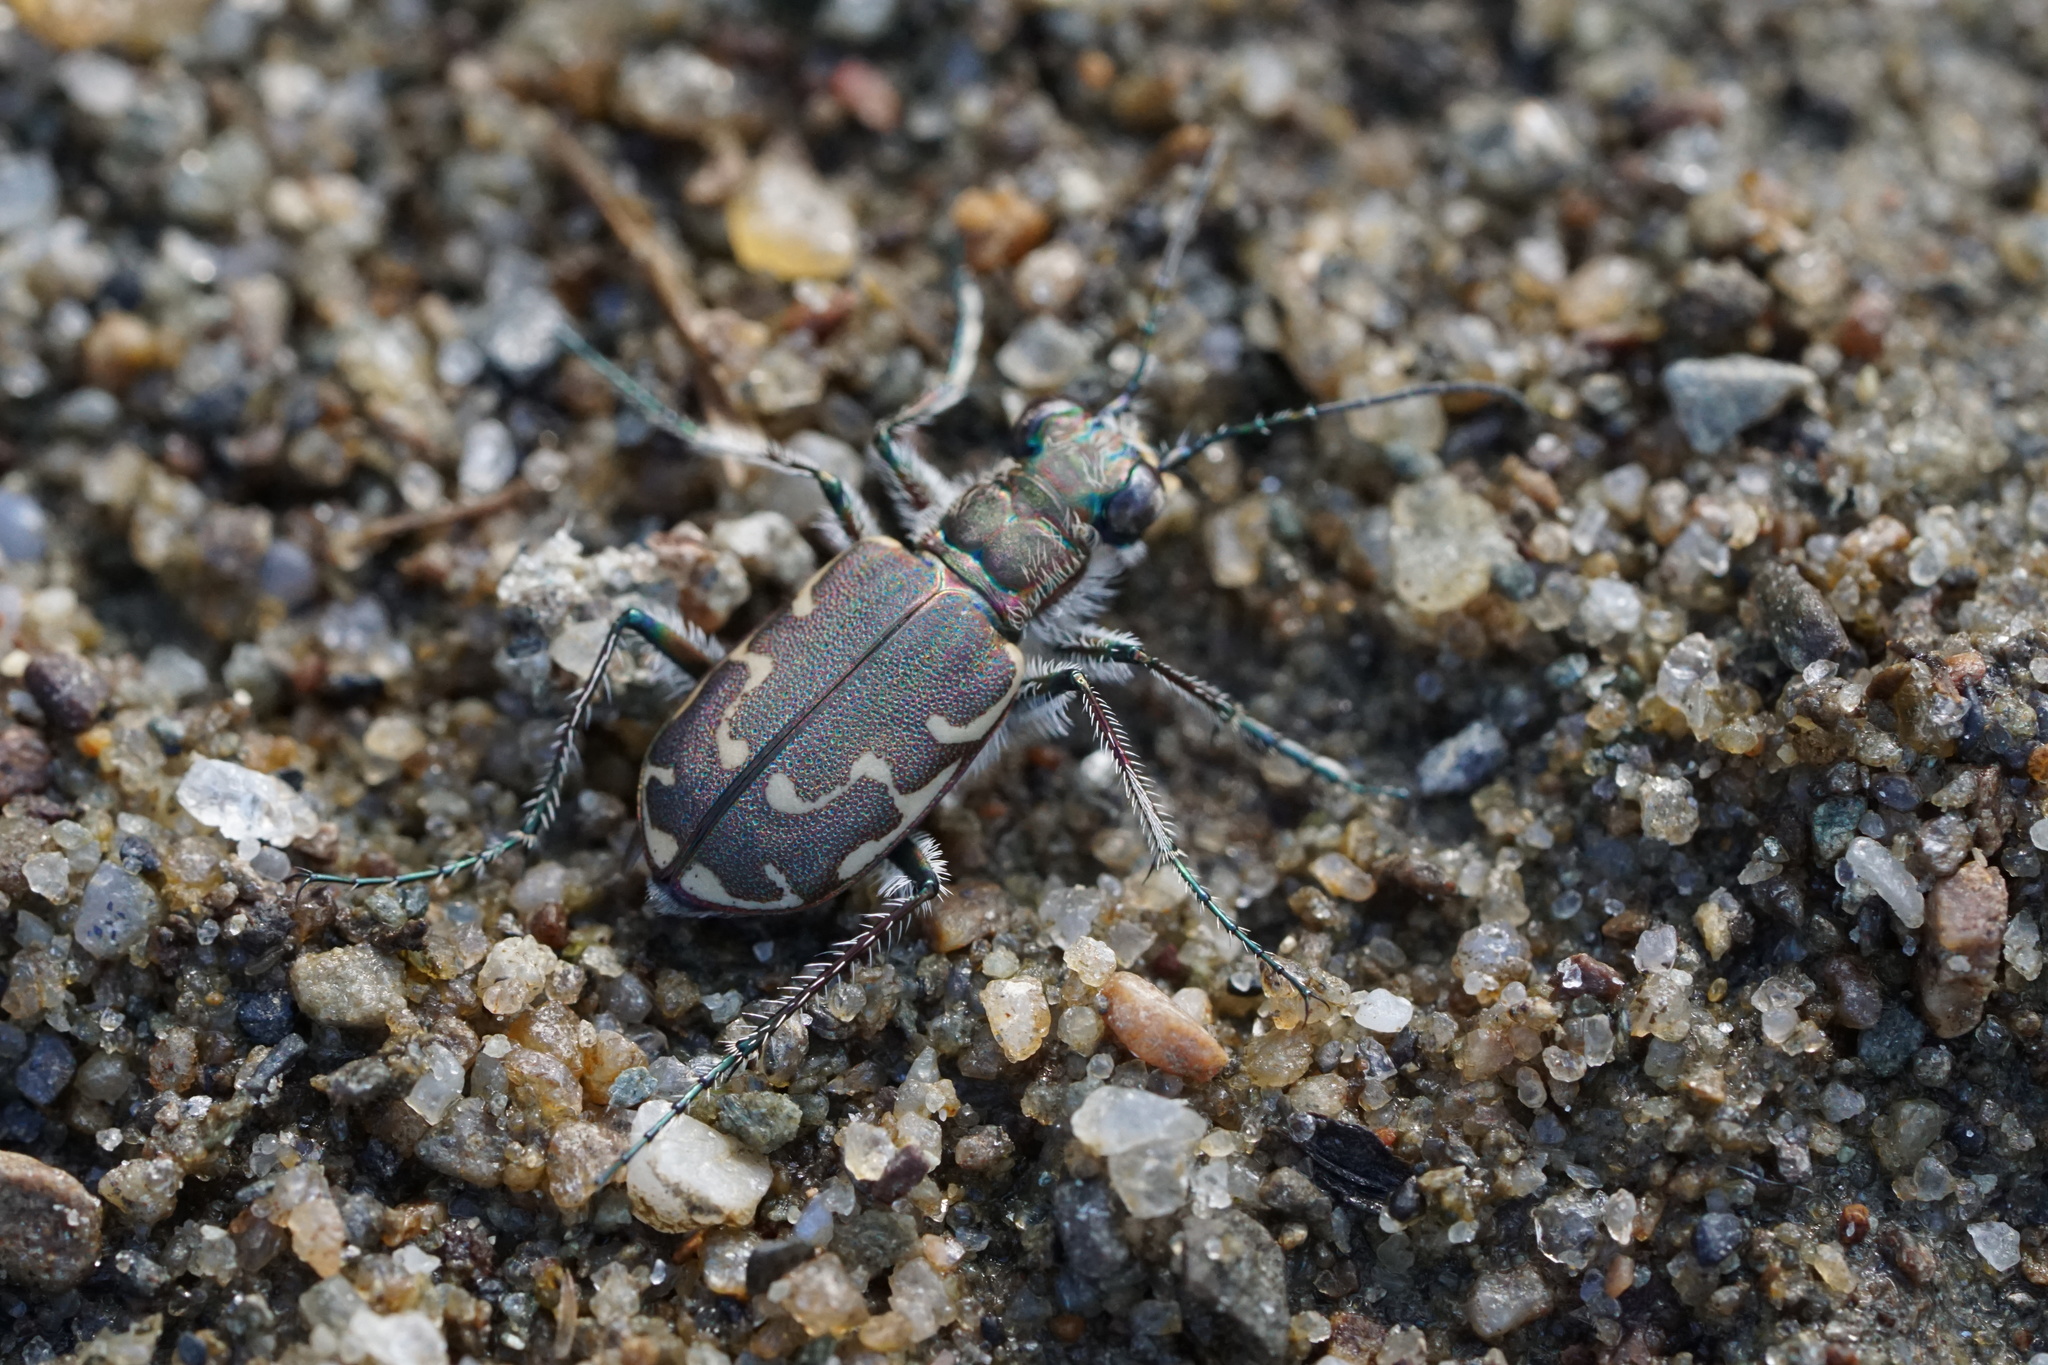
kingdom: Animalia
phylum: Arthropoda
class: Insecta
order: Coleoptera
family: Carabidae
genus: Cicindela
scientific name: Cicindela repanda
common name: Bronzed tiger beetle
